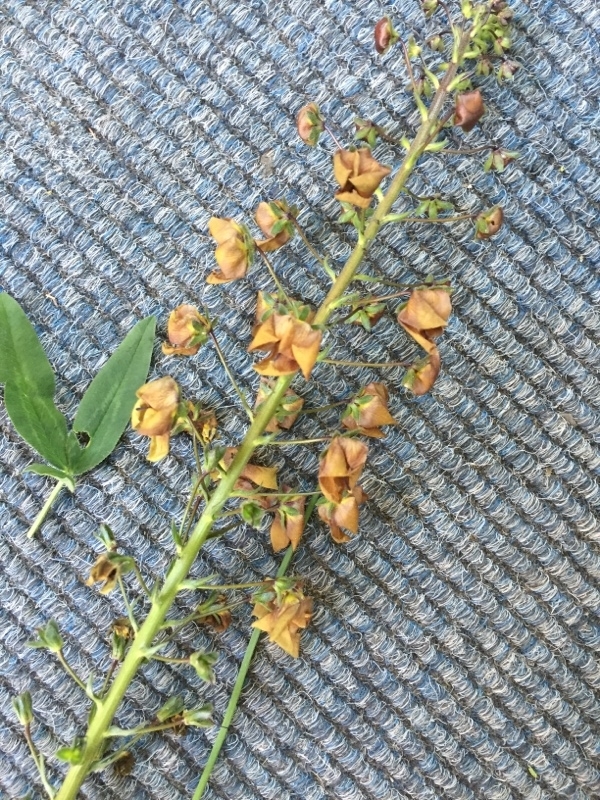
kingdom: Plantae
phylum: Tracheophyta
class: Magnoliopsida
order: Lamiales
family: Scrophulariaceae
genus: Verbascum
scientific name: Verbascum phoeniceum
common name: Purple mullein
